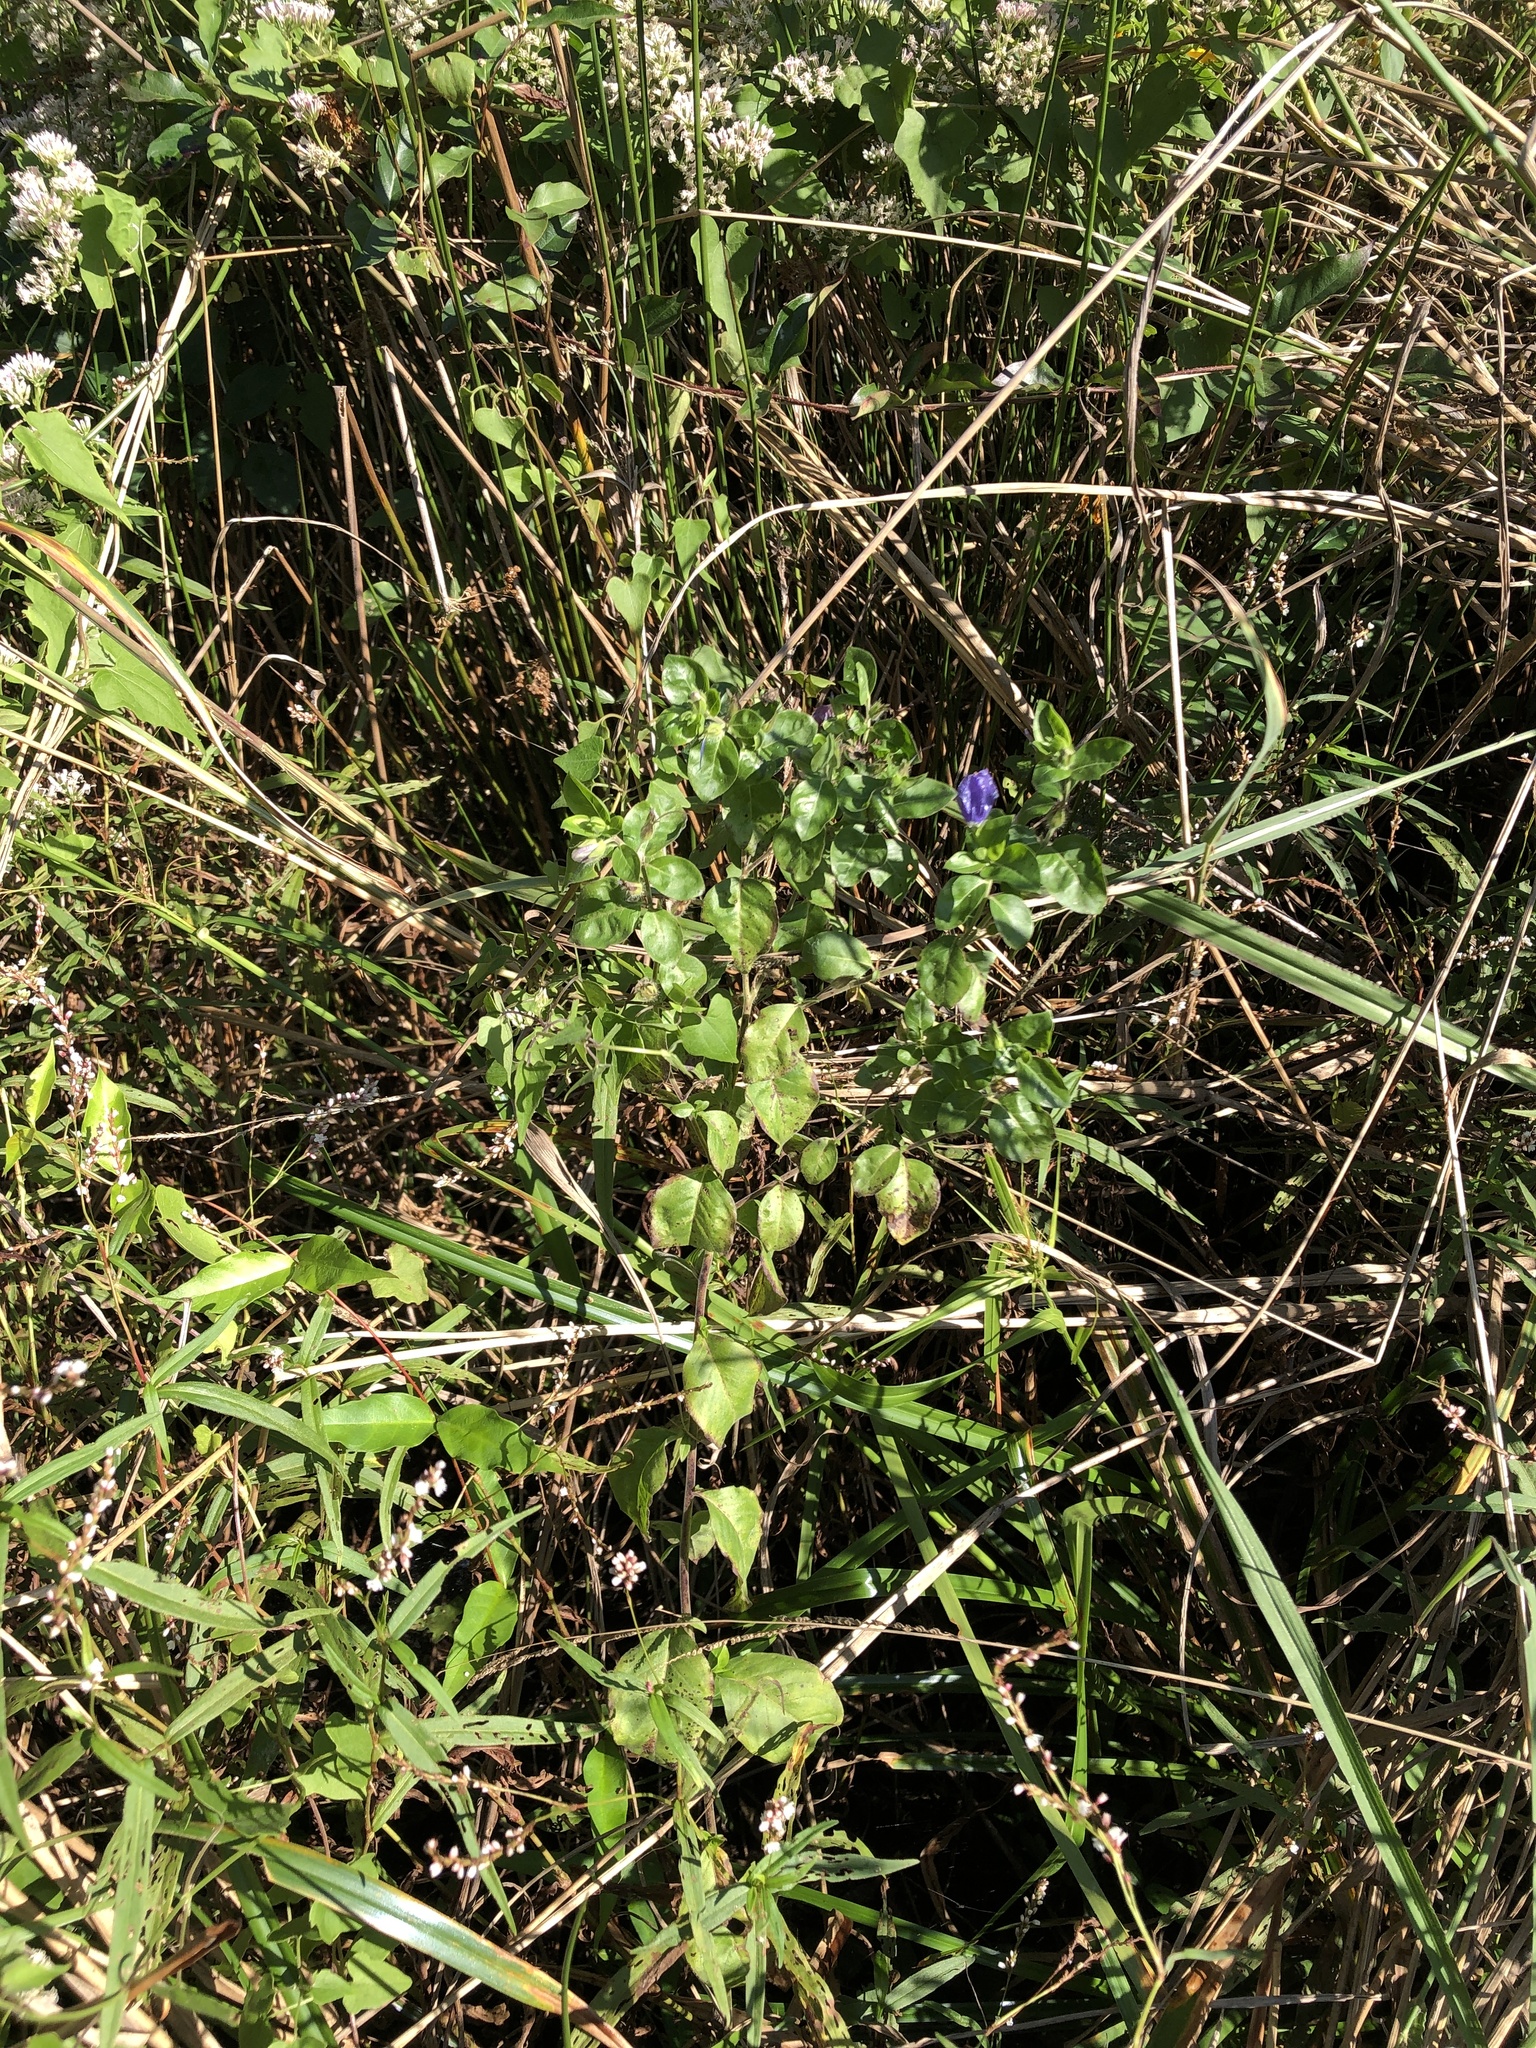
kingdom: Plantae
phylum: Tracheophyta
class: Magnoliopsida
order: Solanales
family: Hydroleaceae
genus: Hydrolea
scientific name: Hydrolea ovata
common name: Ovate false fiddleleaf
